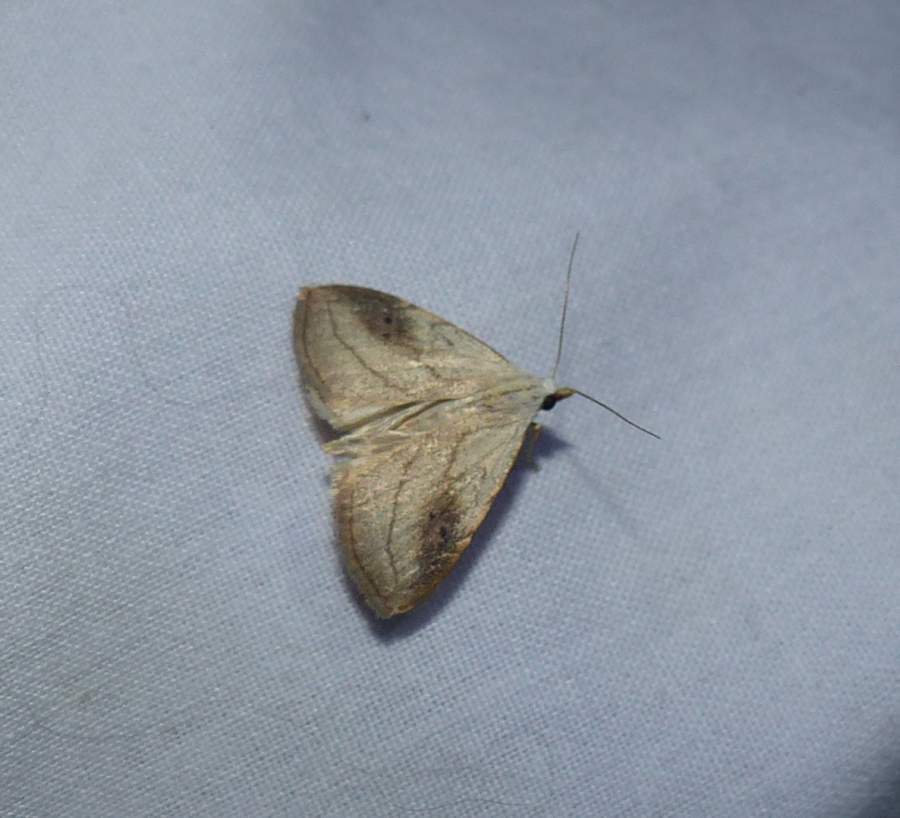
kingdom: Animalia
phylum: Arthropoda
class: Insecta
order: Lepidoptera
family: Erebidae
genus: Rivula
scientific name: Rivula propinqualis
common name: Spotted grass moth
